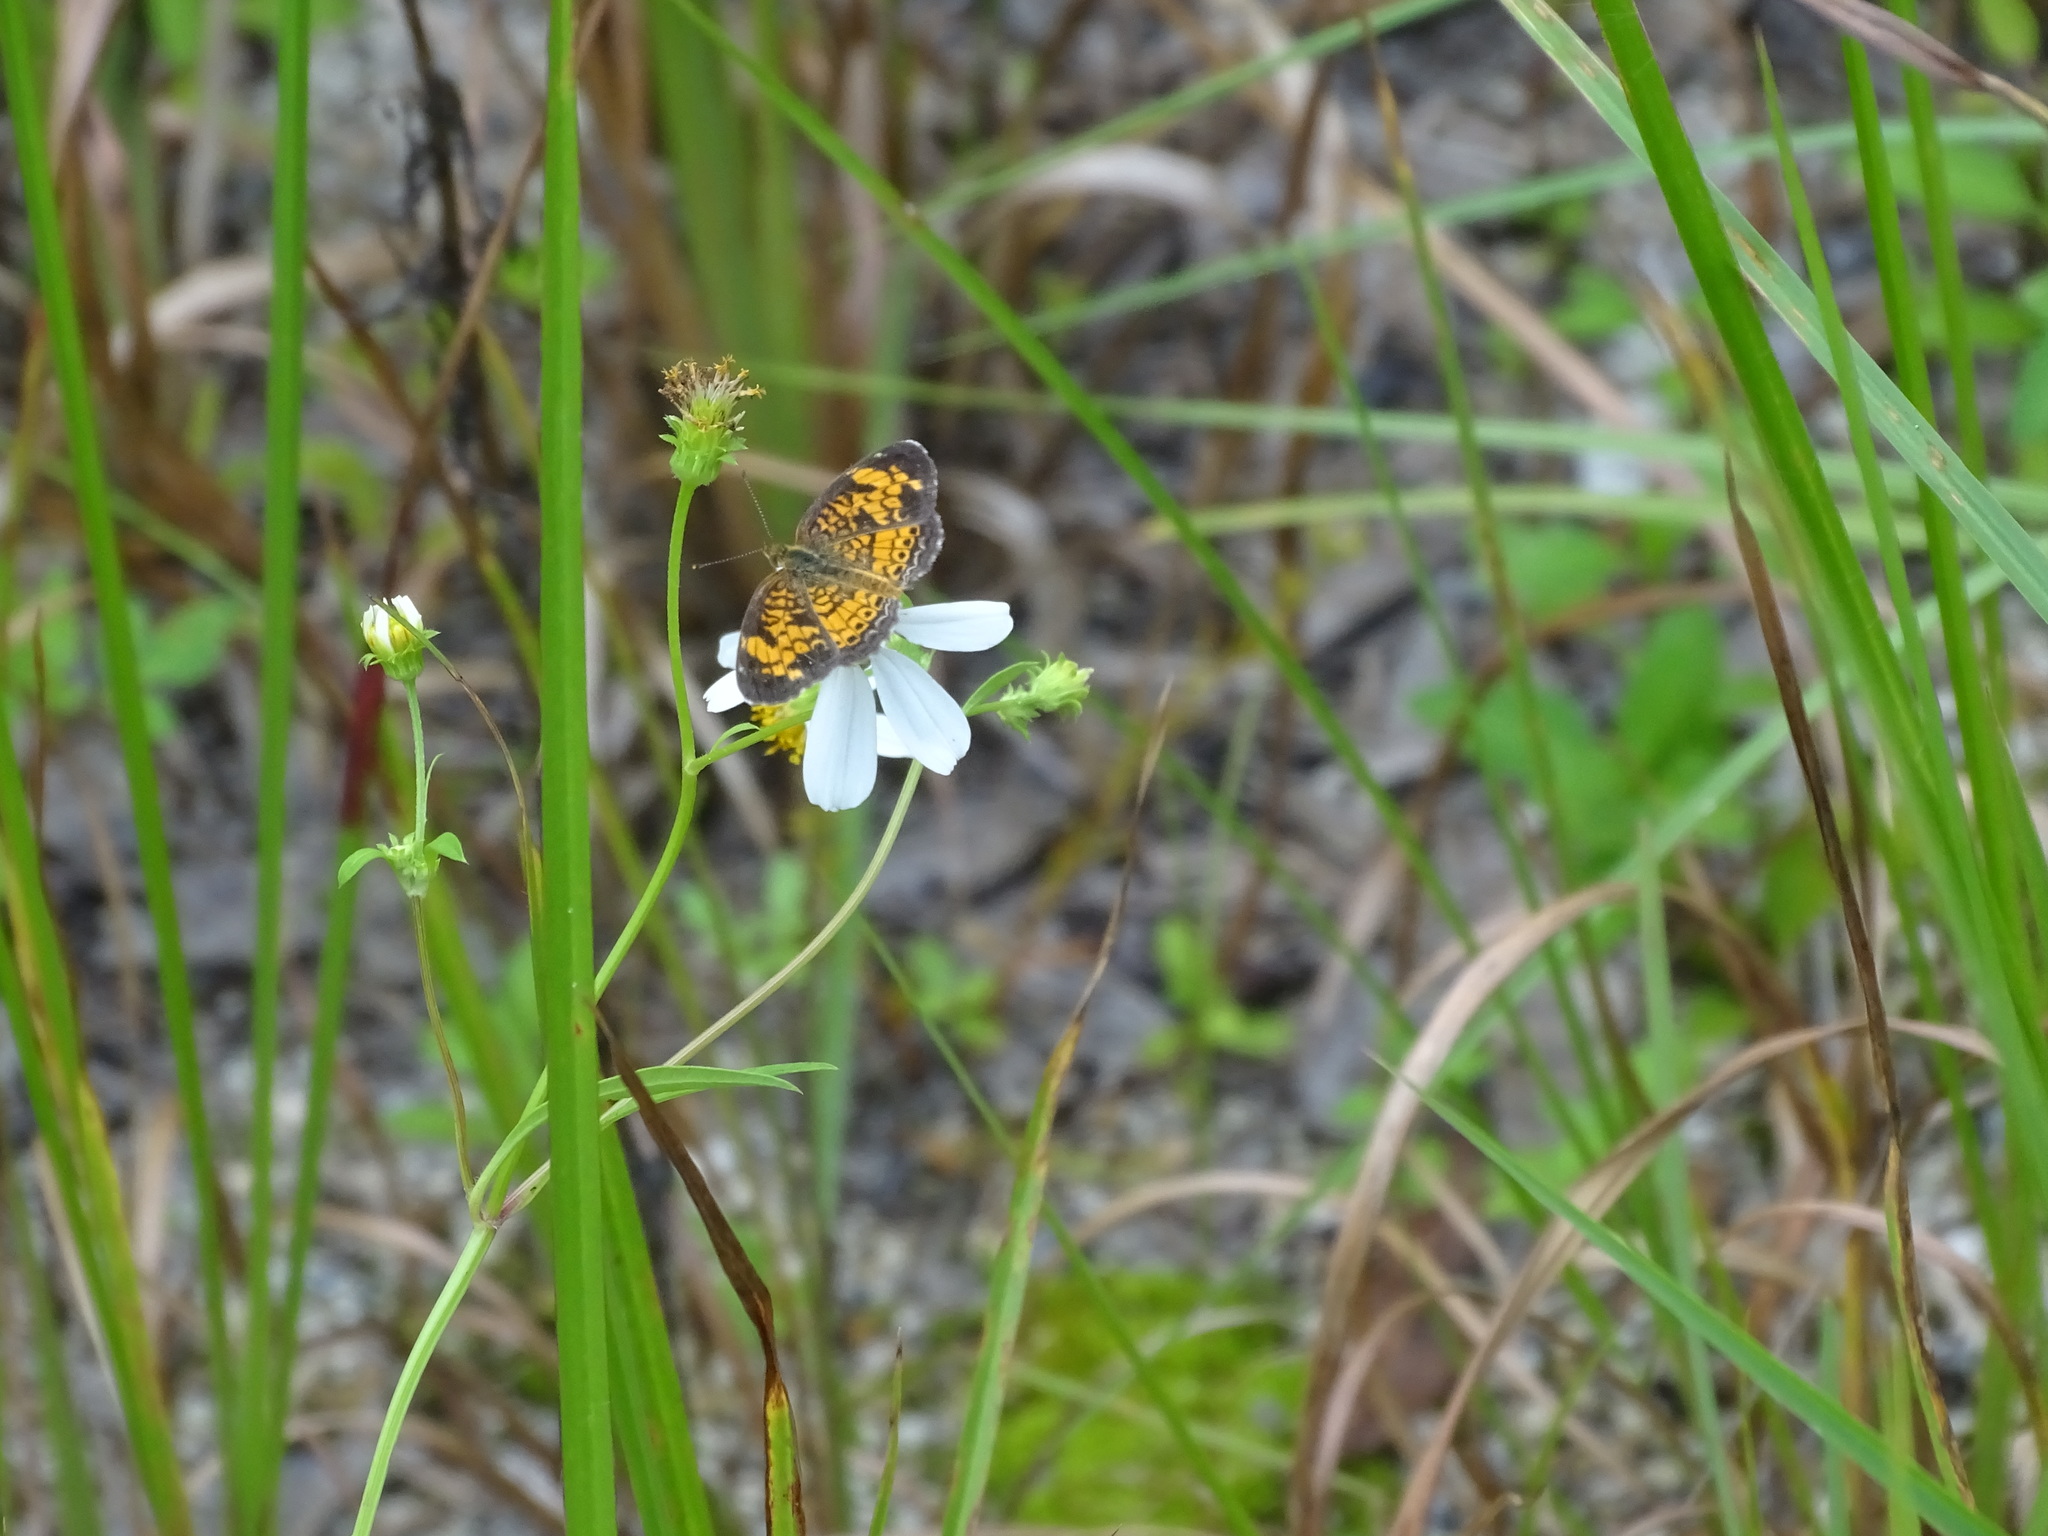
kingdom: Animalia
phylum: Arthropoda
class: Insecta
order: Lepidoptera
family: Nymphalidae
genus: Phyciodes
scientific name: Phyciodes tharos
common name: Pearl crescent
